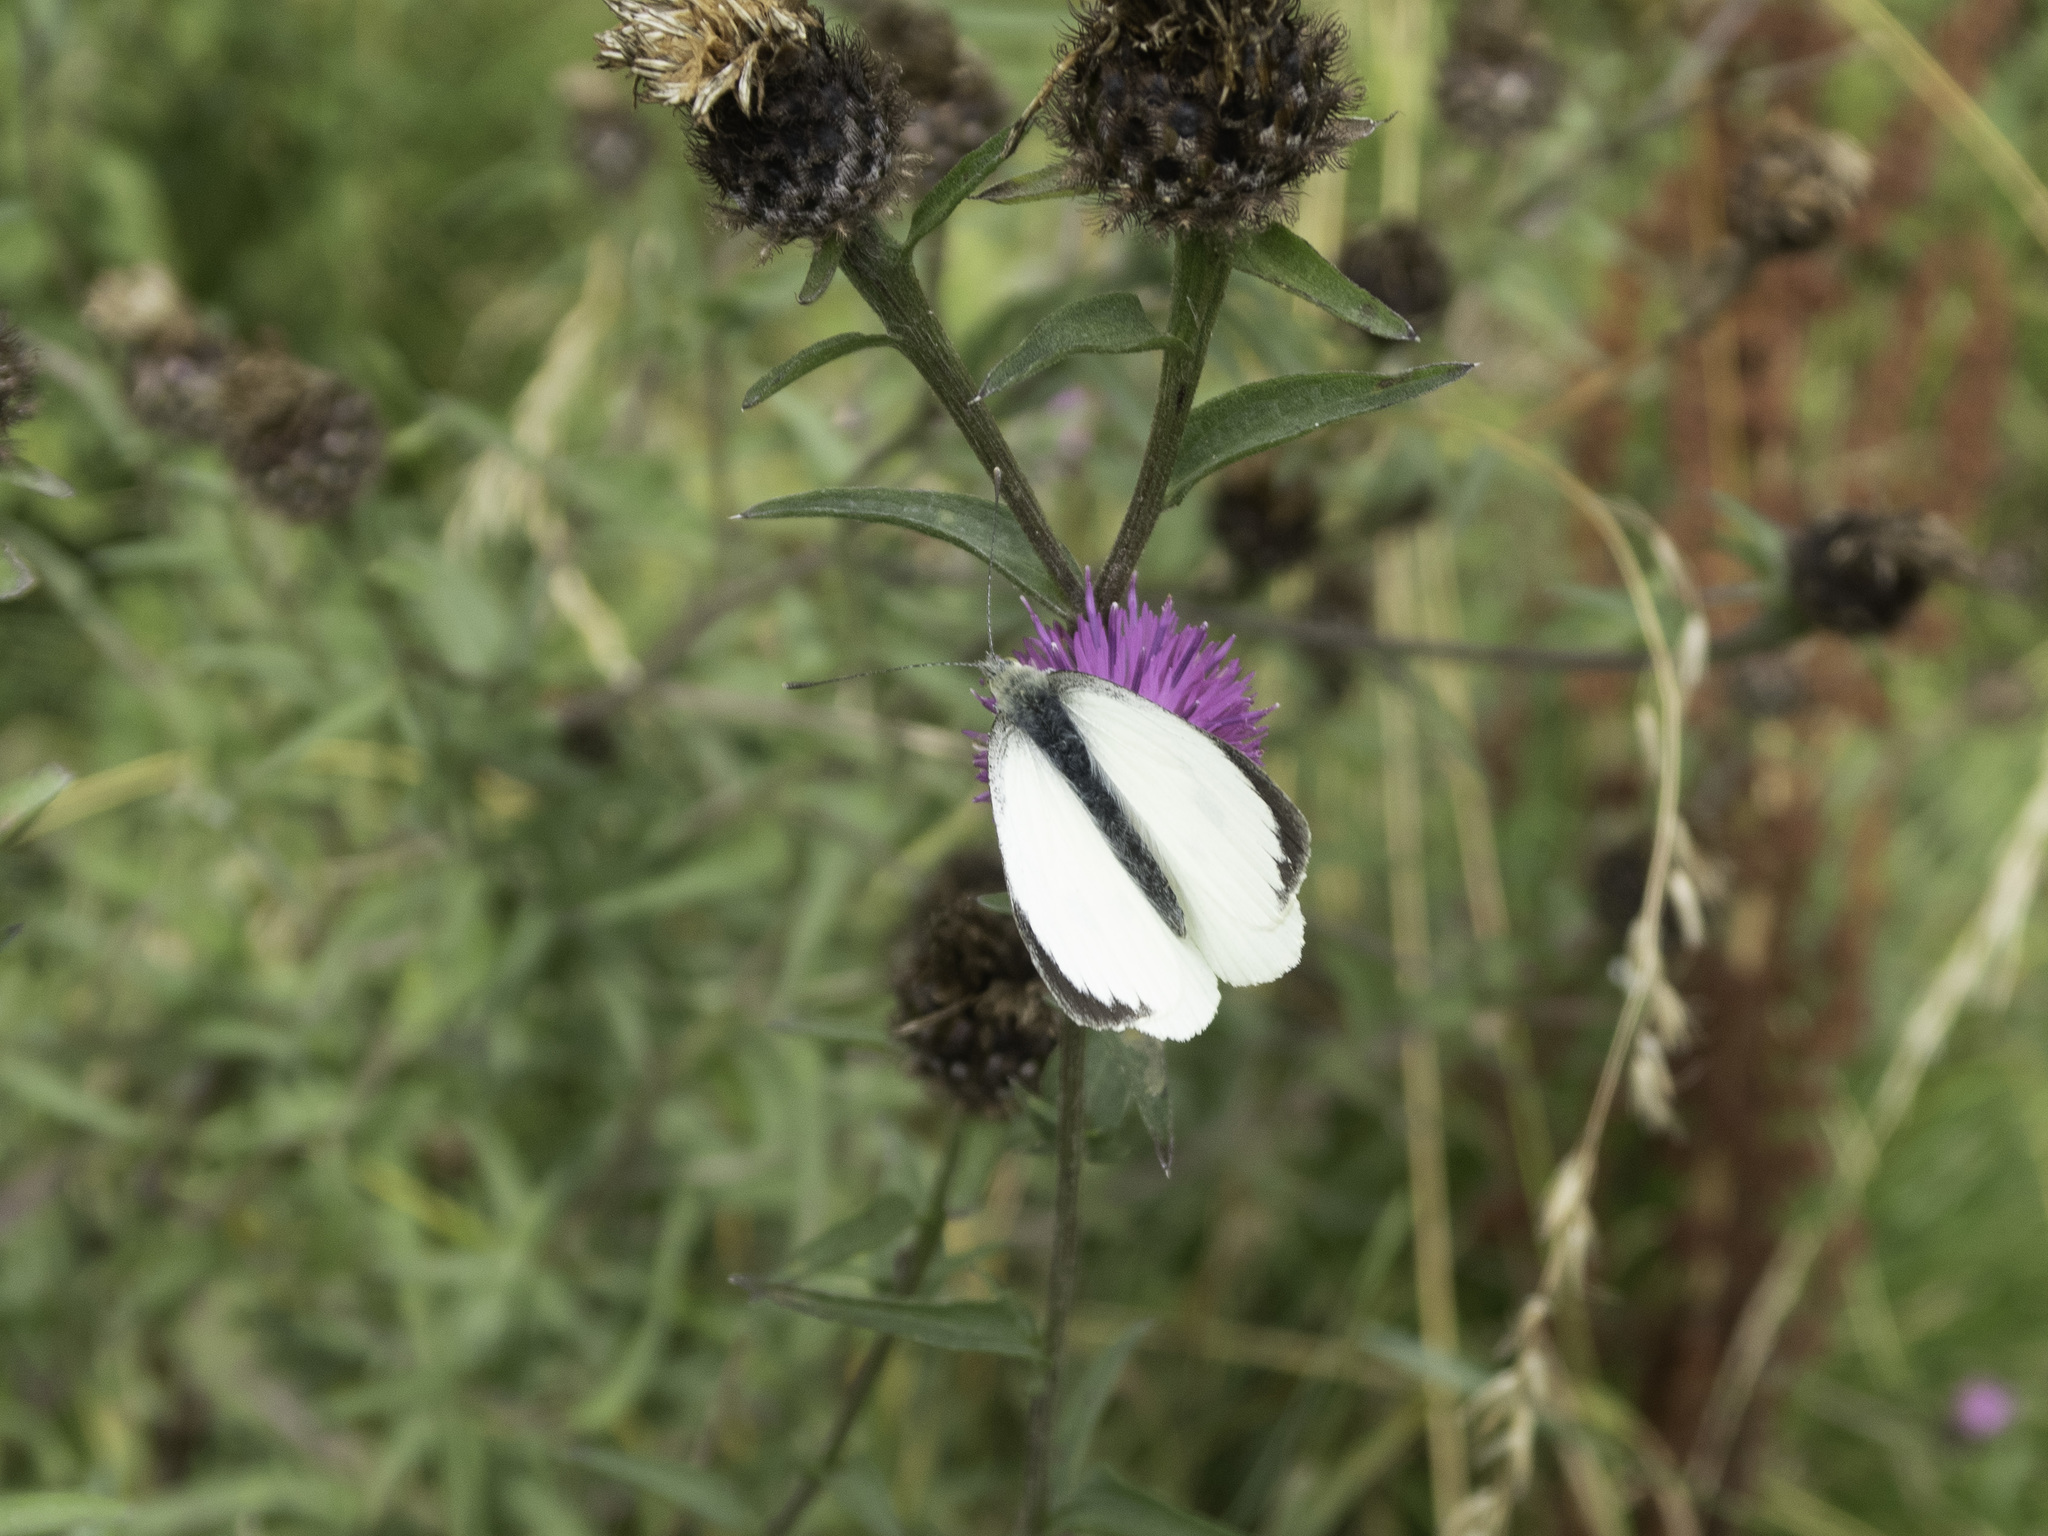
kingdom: Animalia
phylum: Arthropoda
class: Insecta
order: Lepidoptera
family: Pieridae
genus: Pieris
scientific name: Pieris brassicae
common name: Large white
